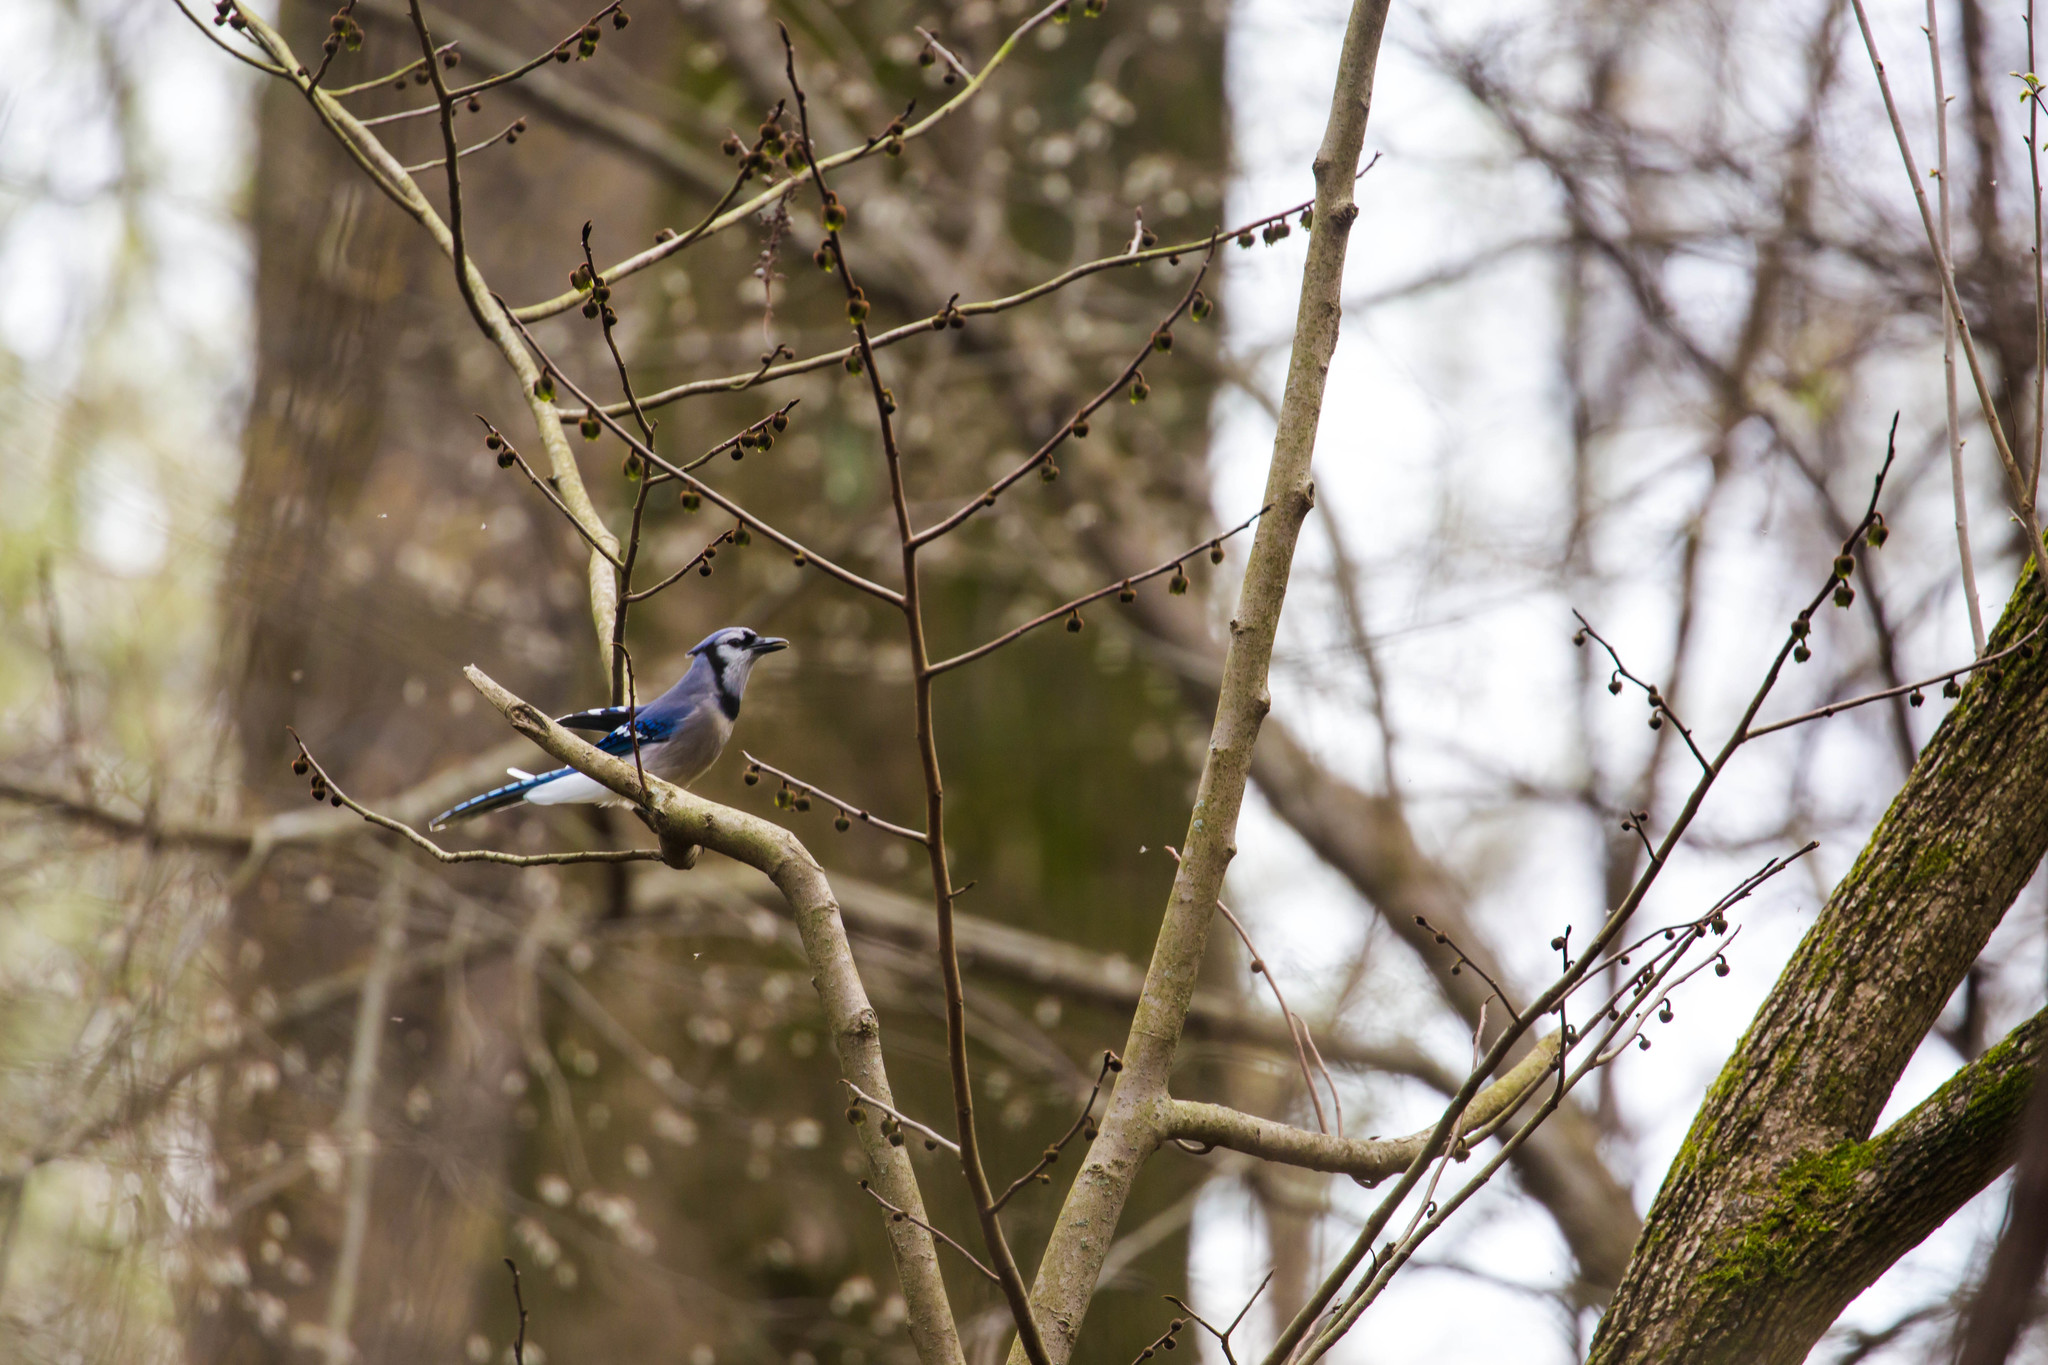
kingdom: Animalia
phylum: Chordata
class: Aves
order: Passeriformes
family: Corvidae
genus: Cyanocitta
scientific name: Cyanocitta cristata
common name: Blue jay
